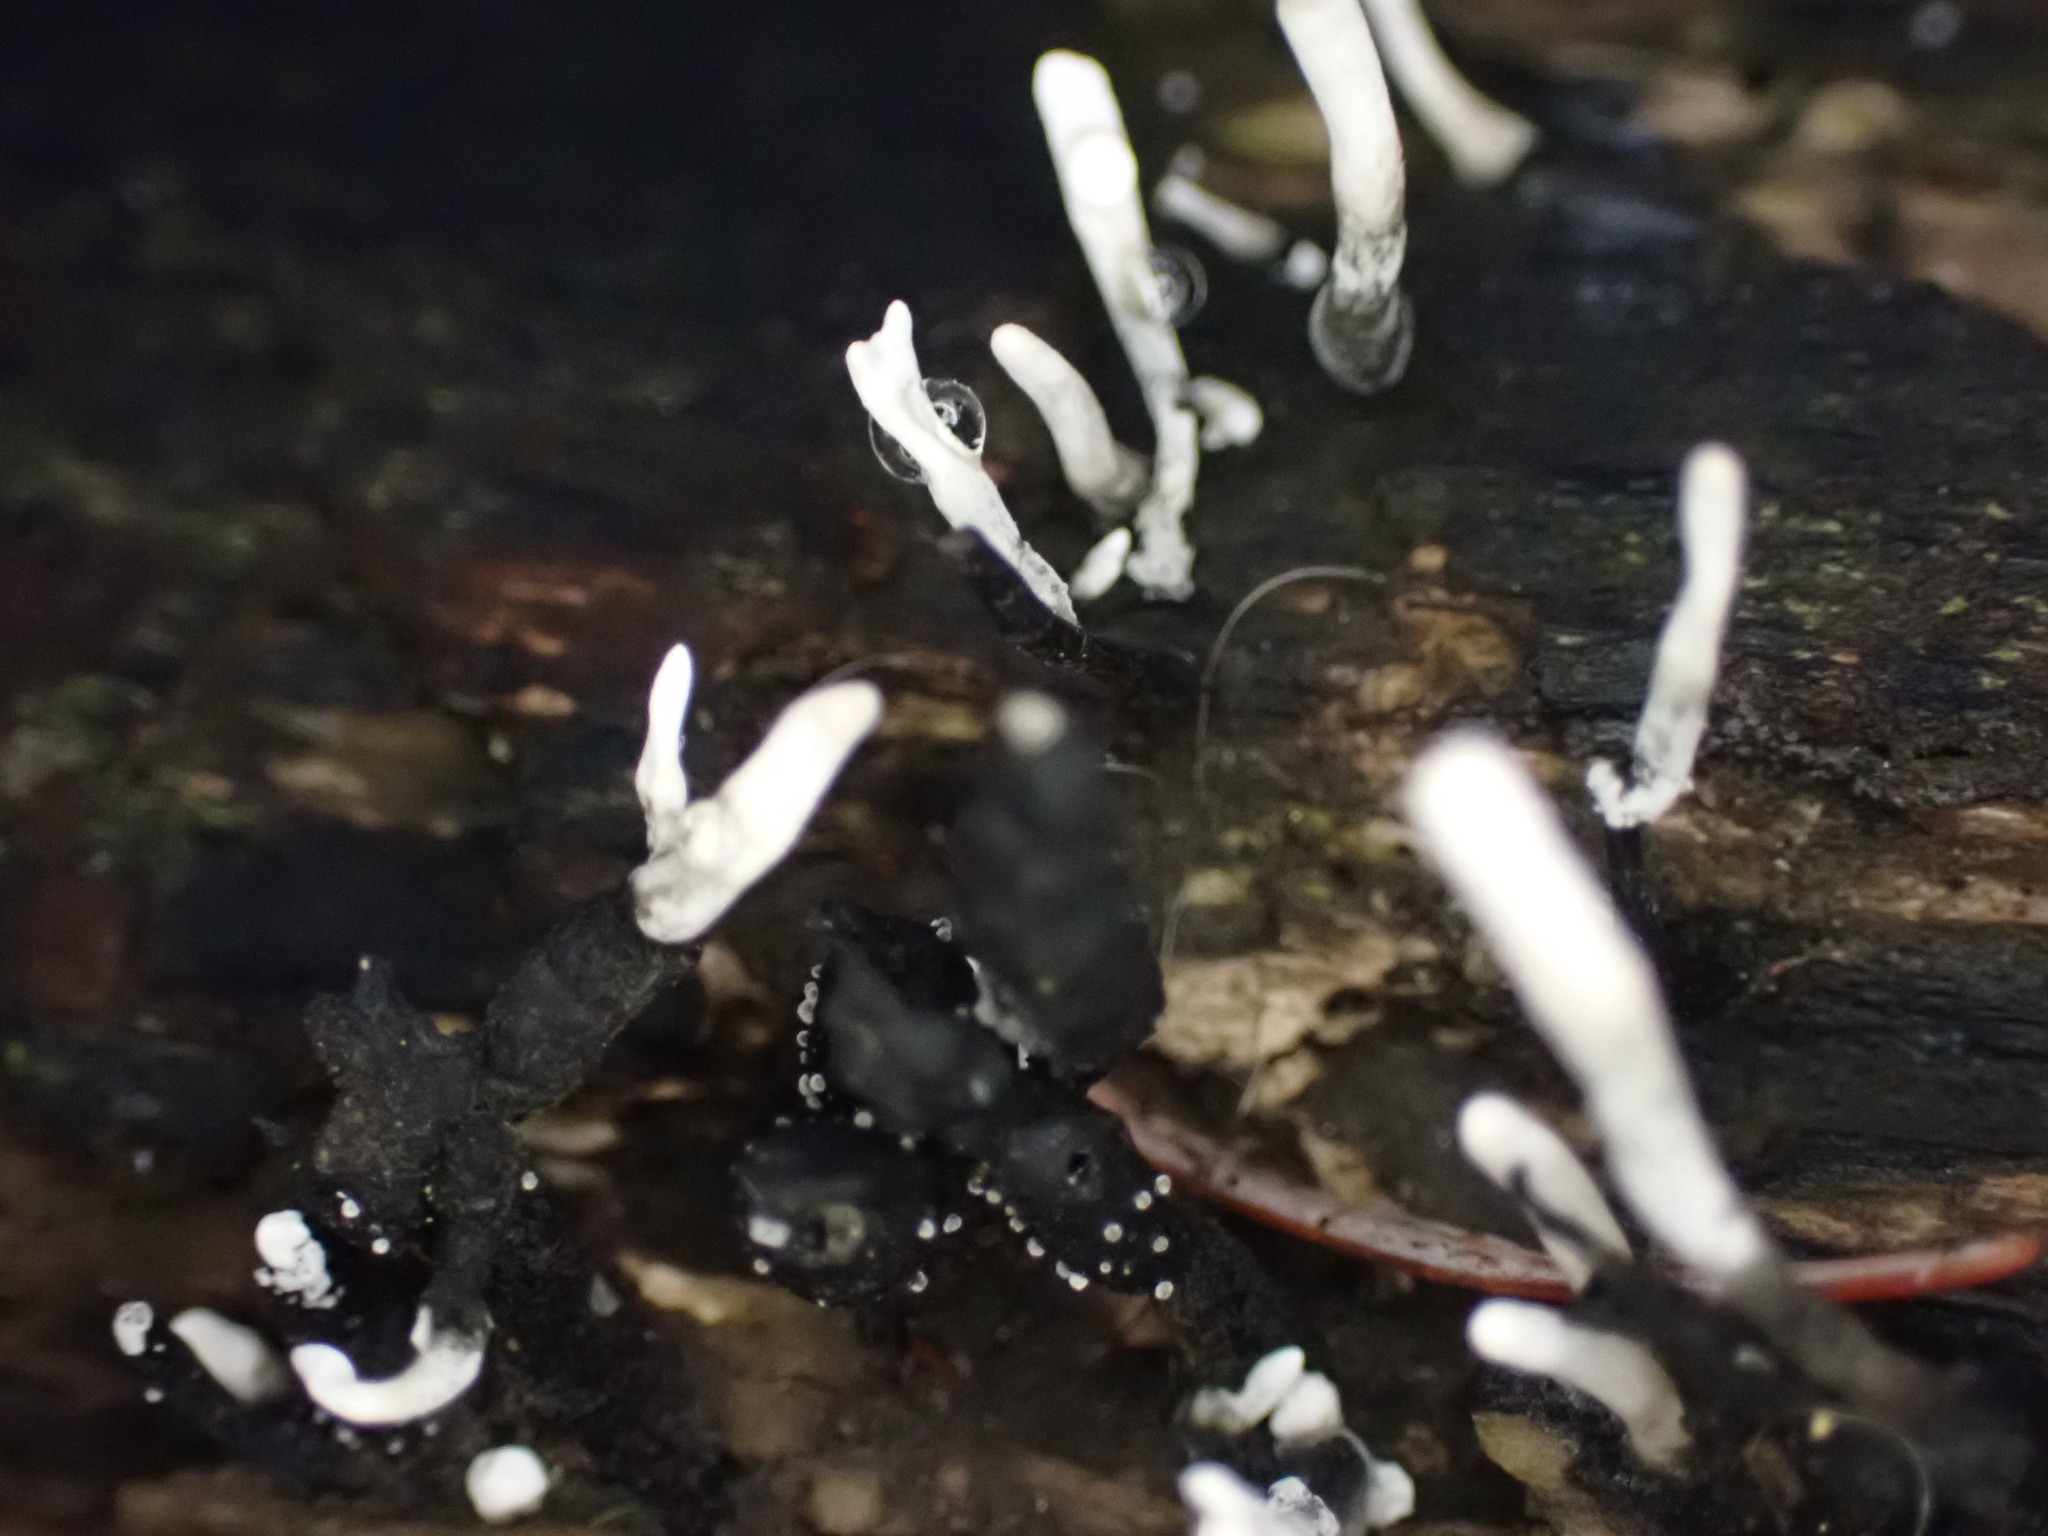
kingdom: Fungi
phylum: Ascomycota
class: Sordariomycetes
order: Xylariales
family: Xylariaceae
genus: Xylaria
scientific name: Xylaria hypoxylon
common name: Candle-snuff fungus
